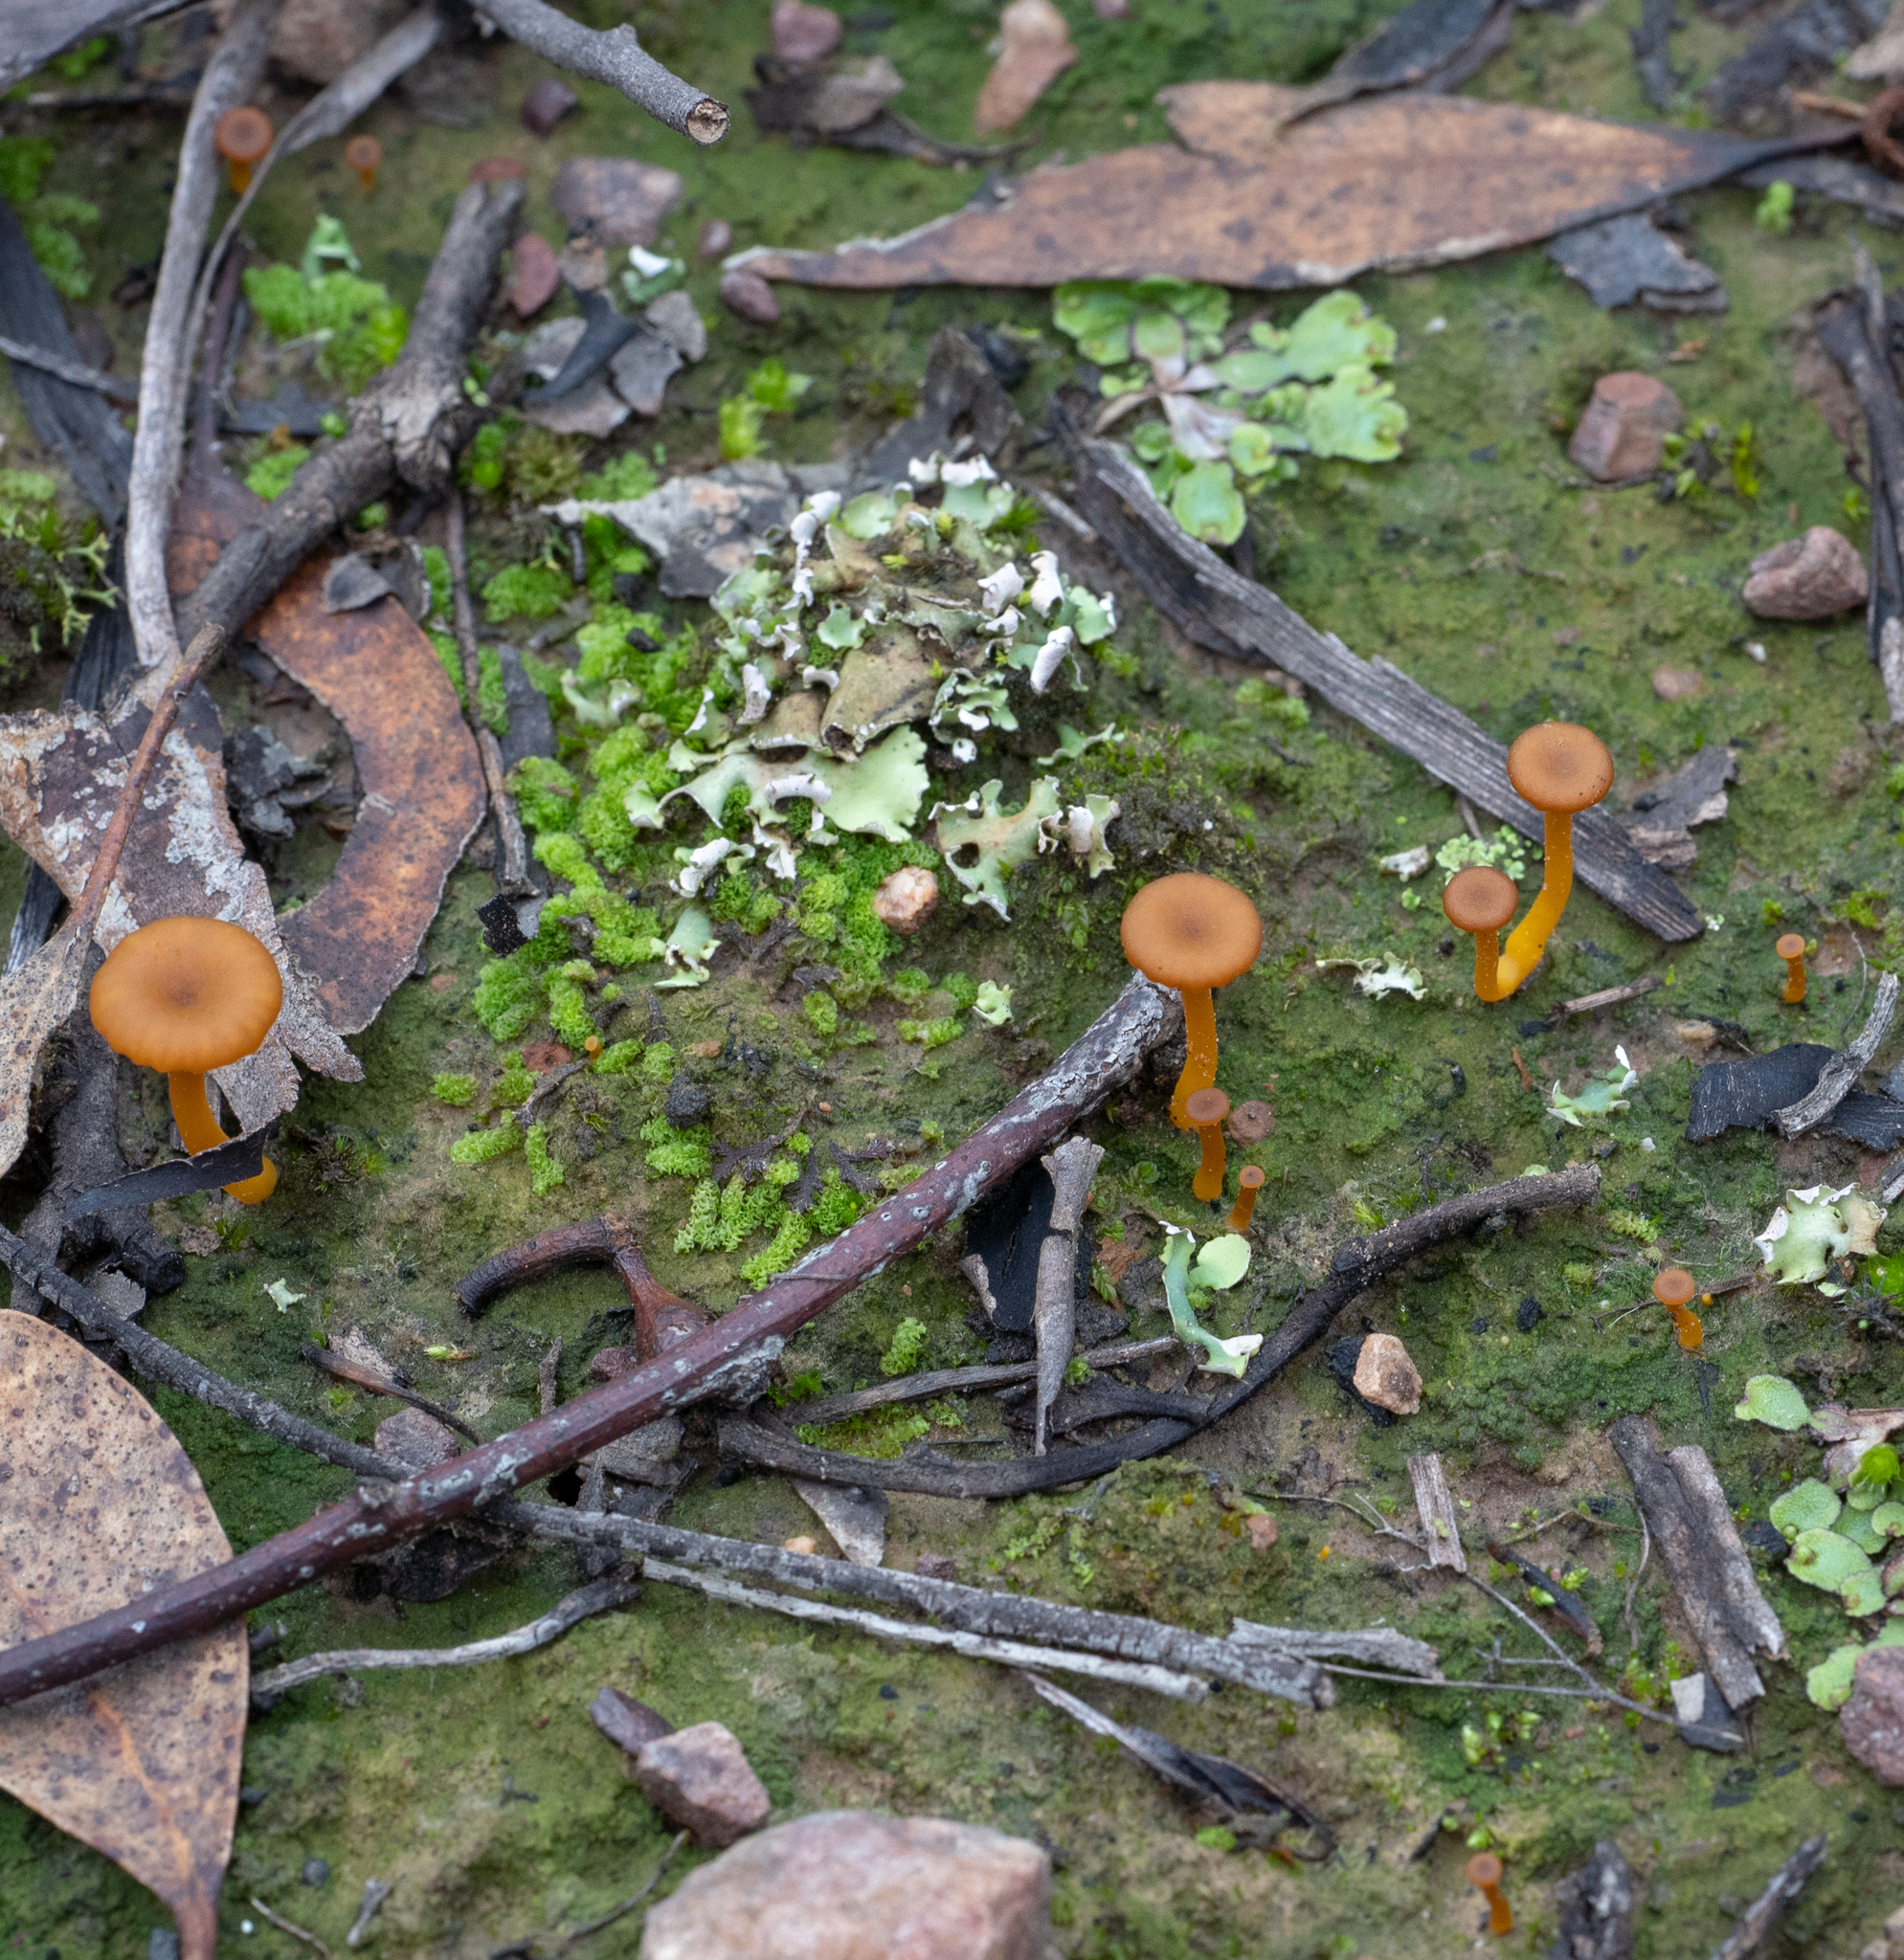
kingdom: Fungi
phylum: Basidiomycota
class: Agaricomycetes
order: Agaricales
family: Hygrophoraceae
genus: Lichenomphalia
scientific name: Lichenomphalia chromacea
